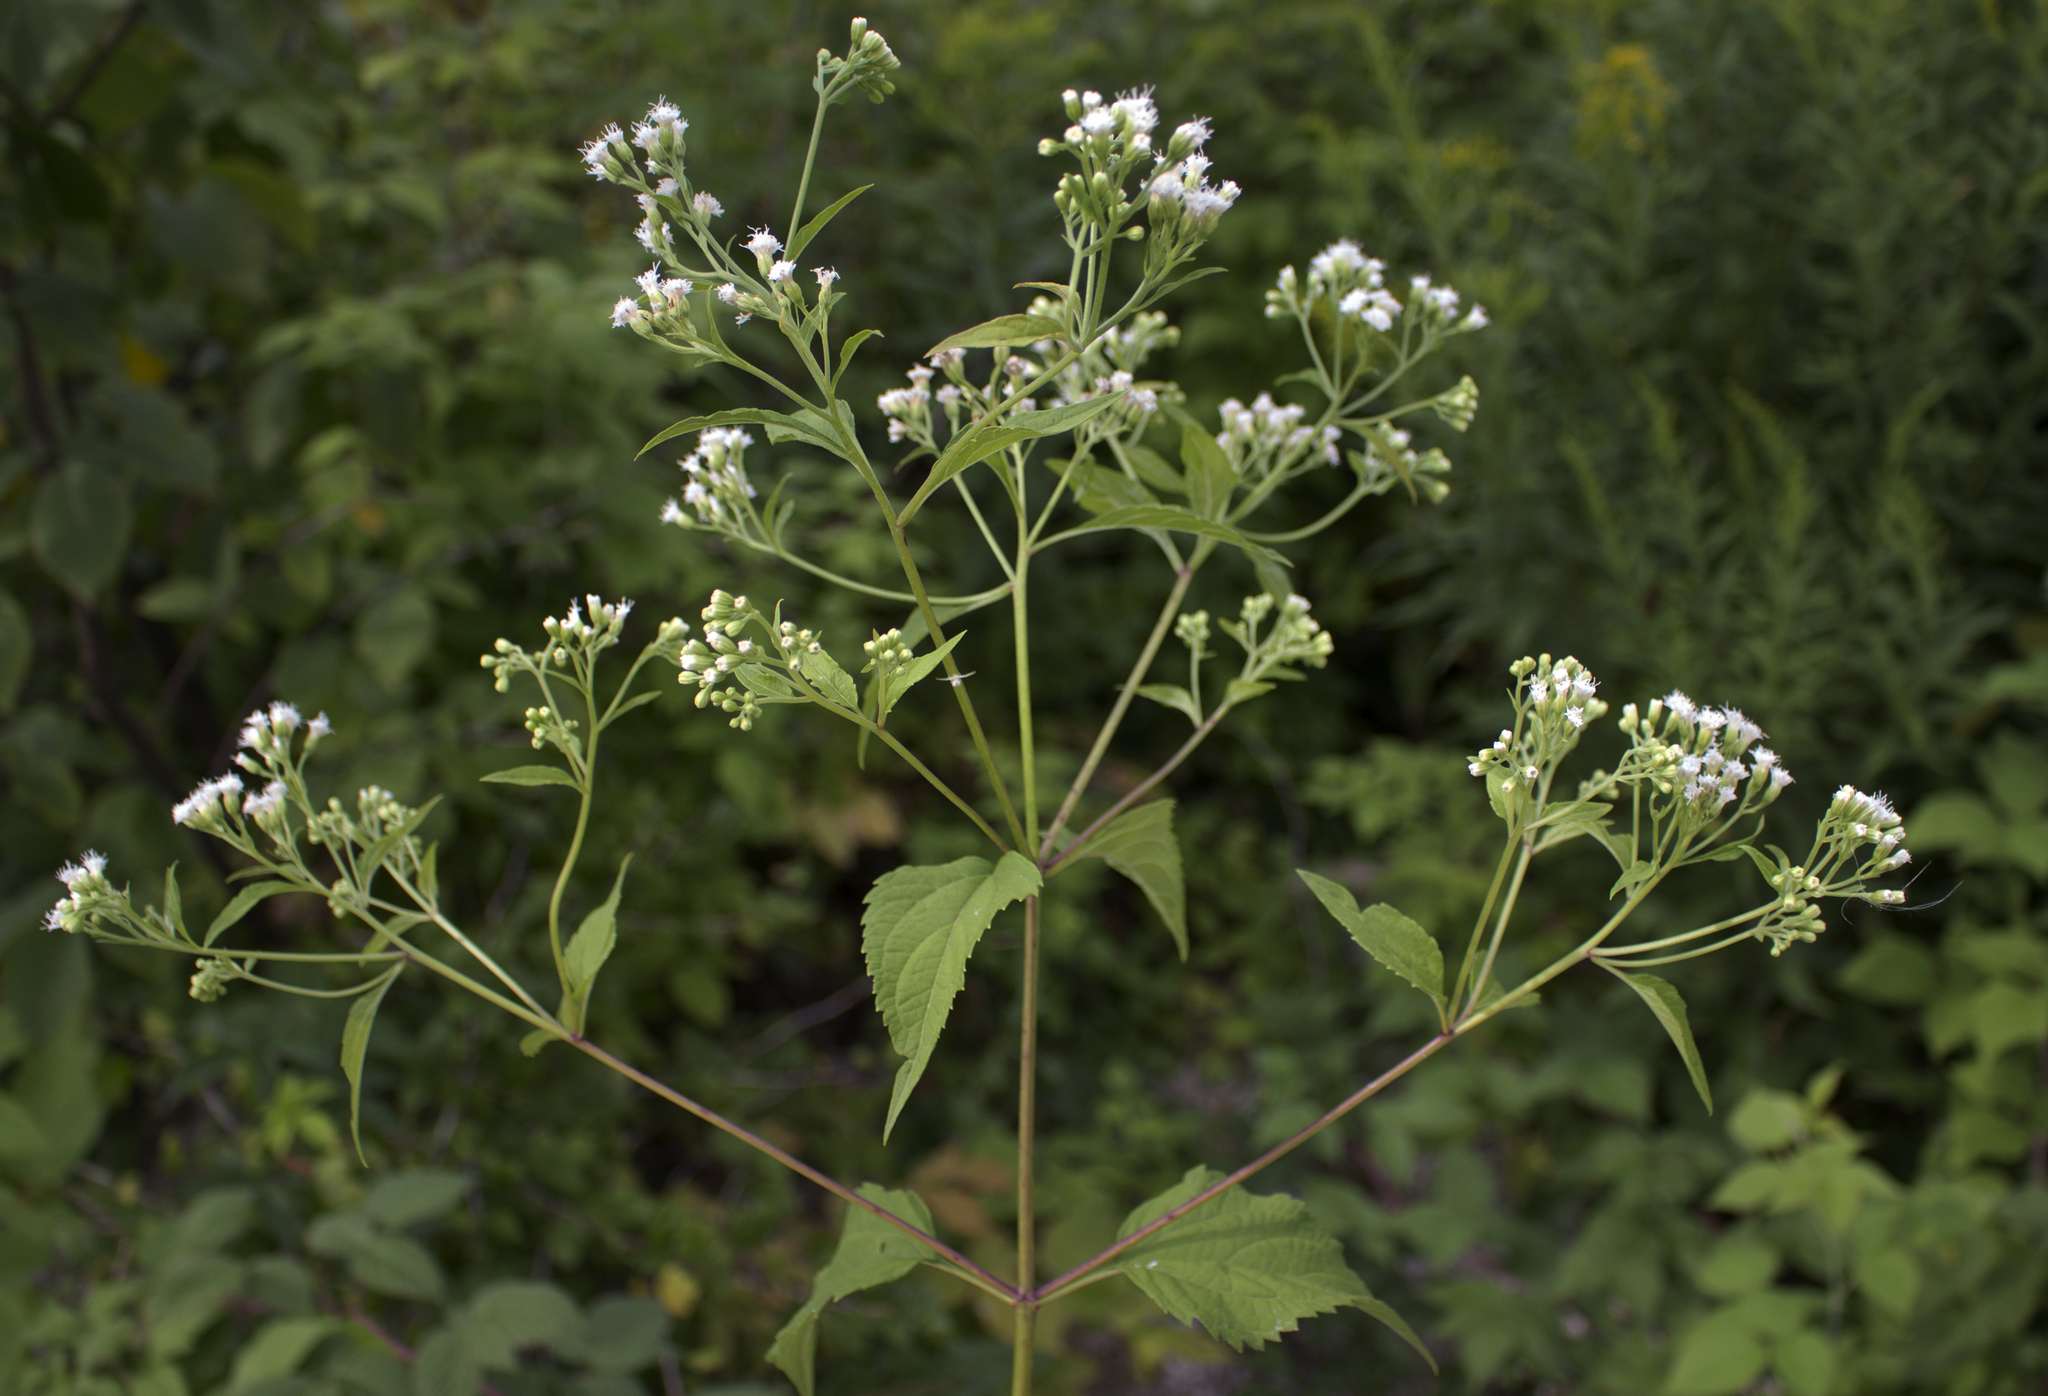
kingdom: Plantae
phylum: Tracheophyta
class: Magnoliopsida
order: Asterales
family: Asteraceae
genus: Ageratina
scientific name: Ageratina altissima
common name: White snakeroot
